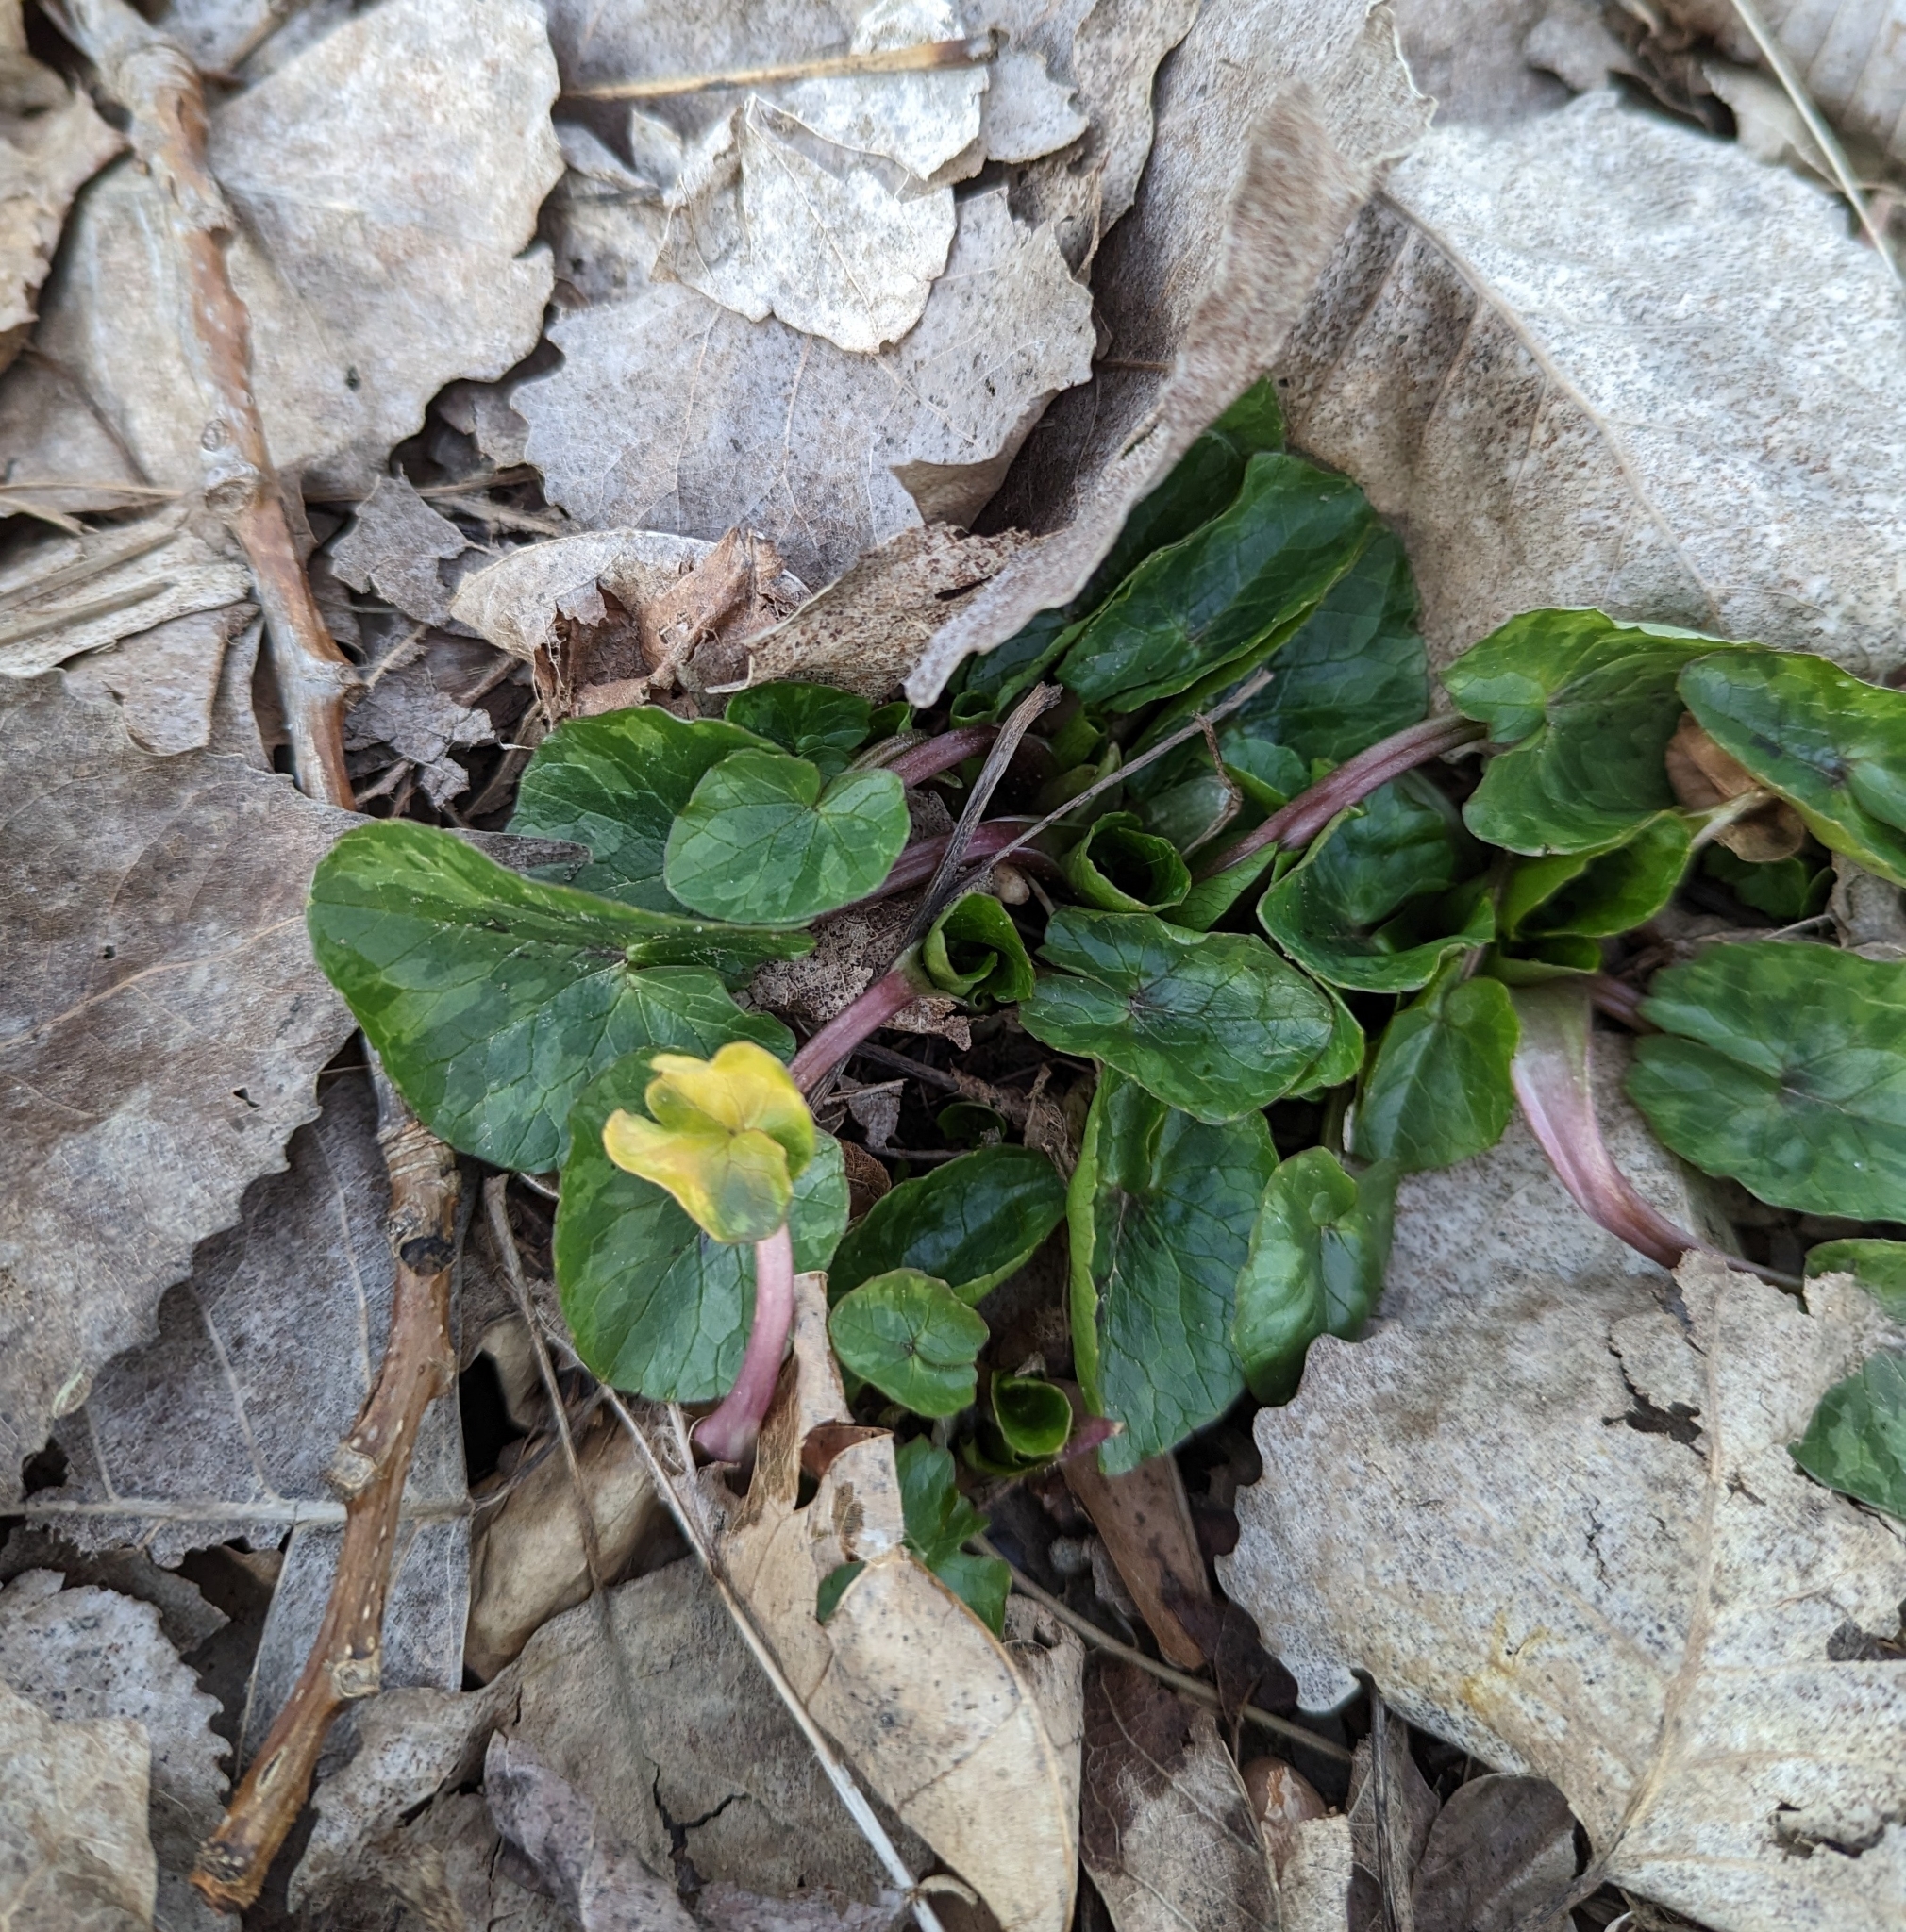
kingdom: Plantae
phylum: Tracheophyta
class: Magnoliopsida
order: Ranunculales
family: Ranunculaceae
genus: Ficaria
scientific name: Ficaria verna
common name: Lesser celandine
